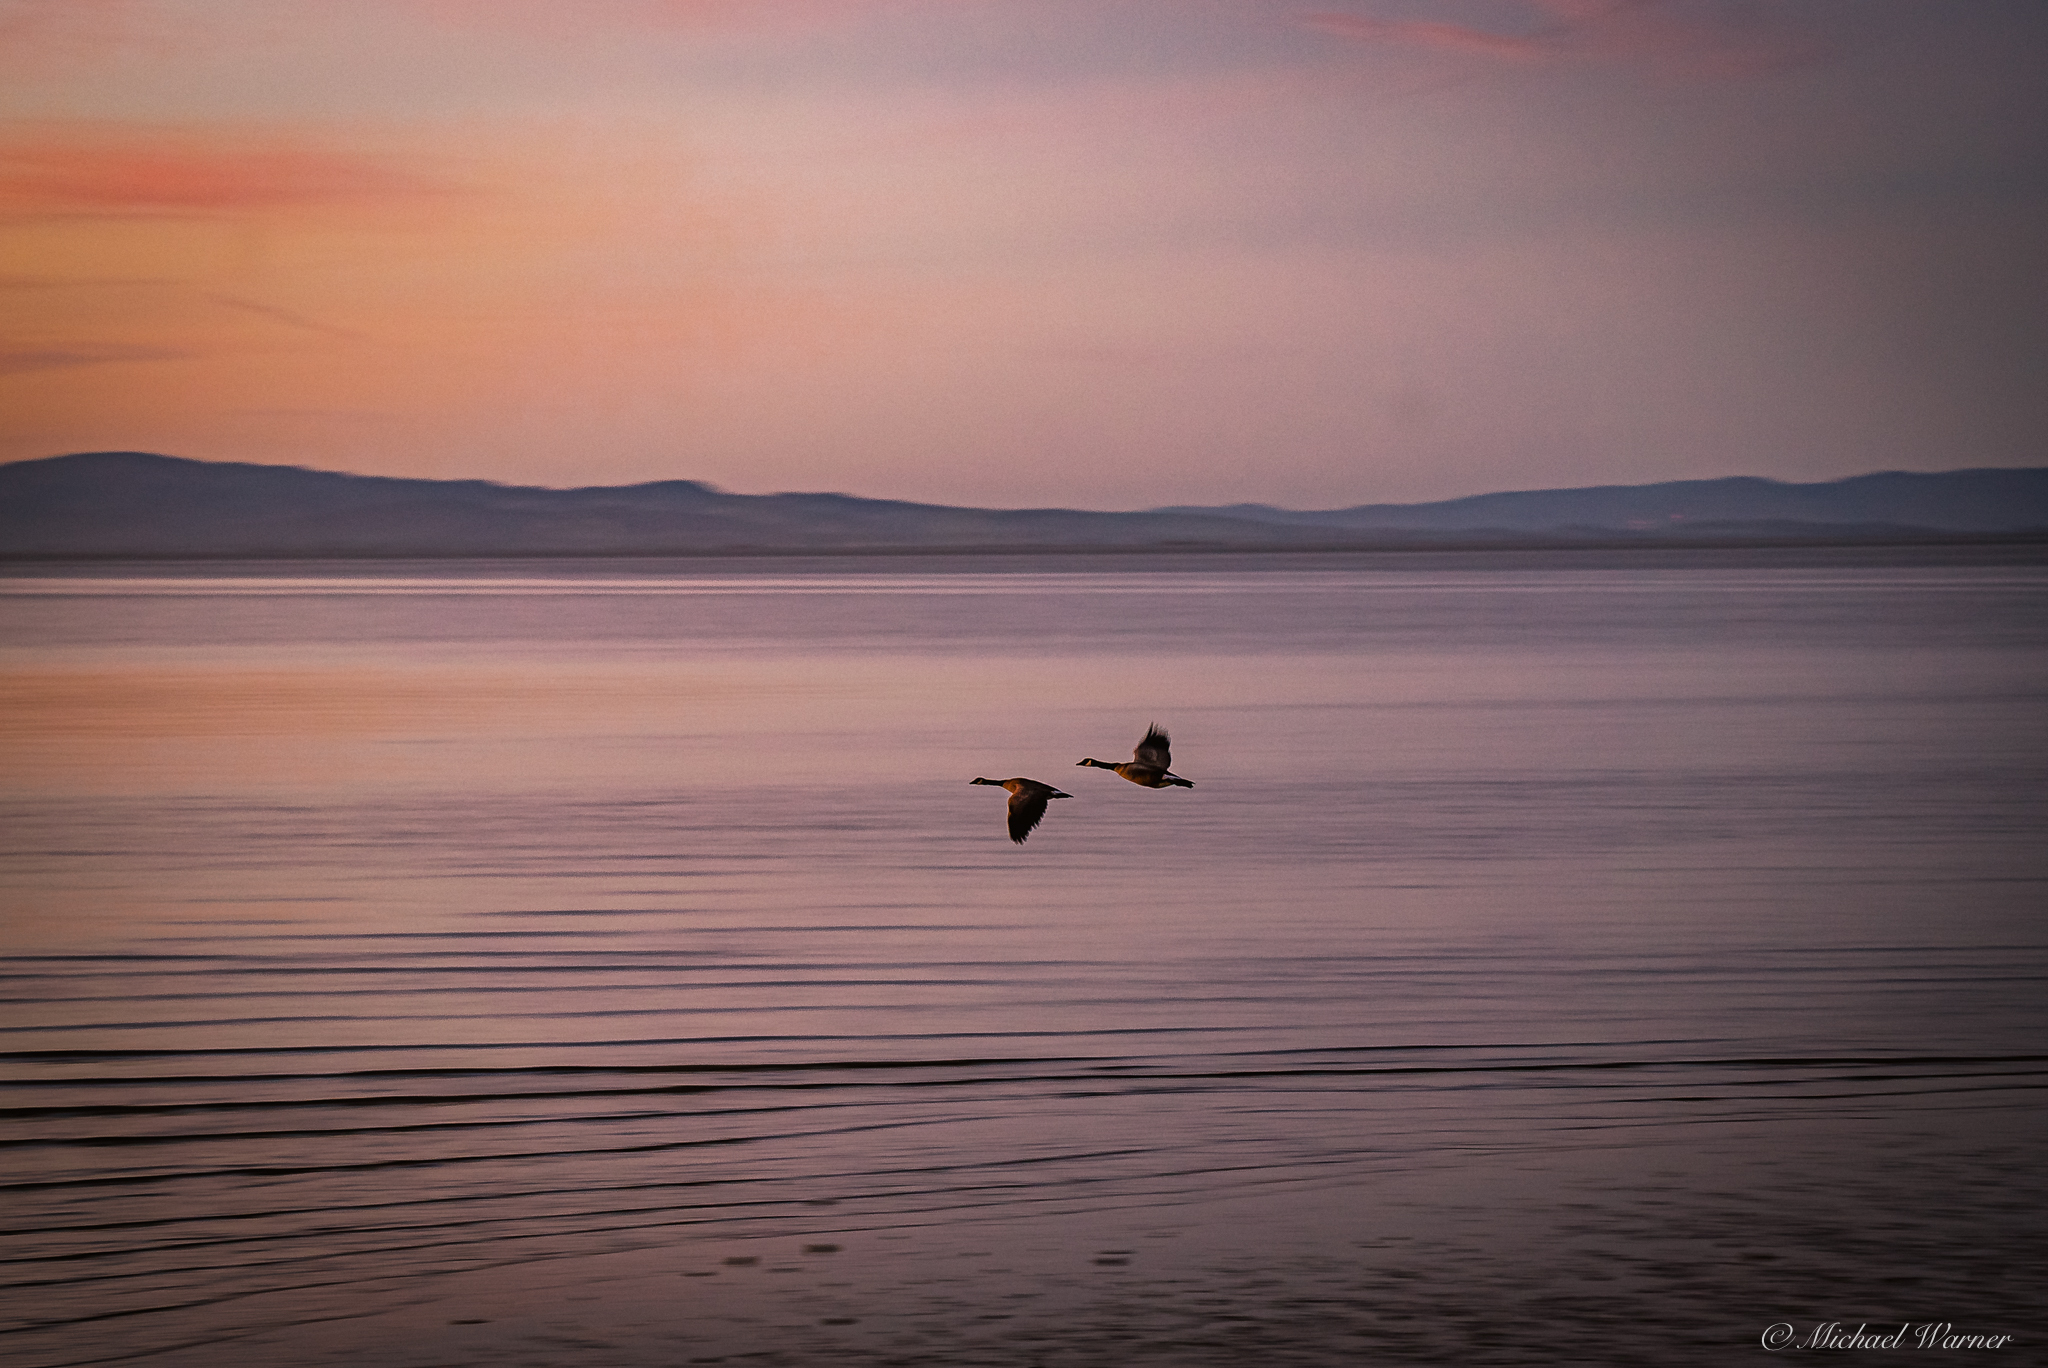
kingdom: Animalia
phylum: Chordata
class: Aves
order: Anseriformes
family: Anatidae
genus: Branta
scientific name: Branta canadensis
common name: Canada goose
